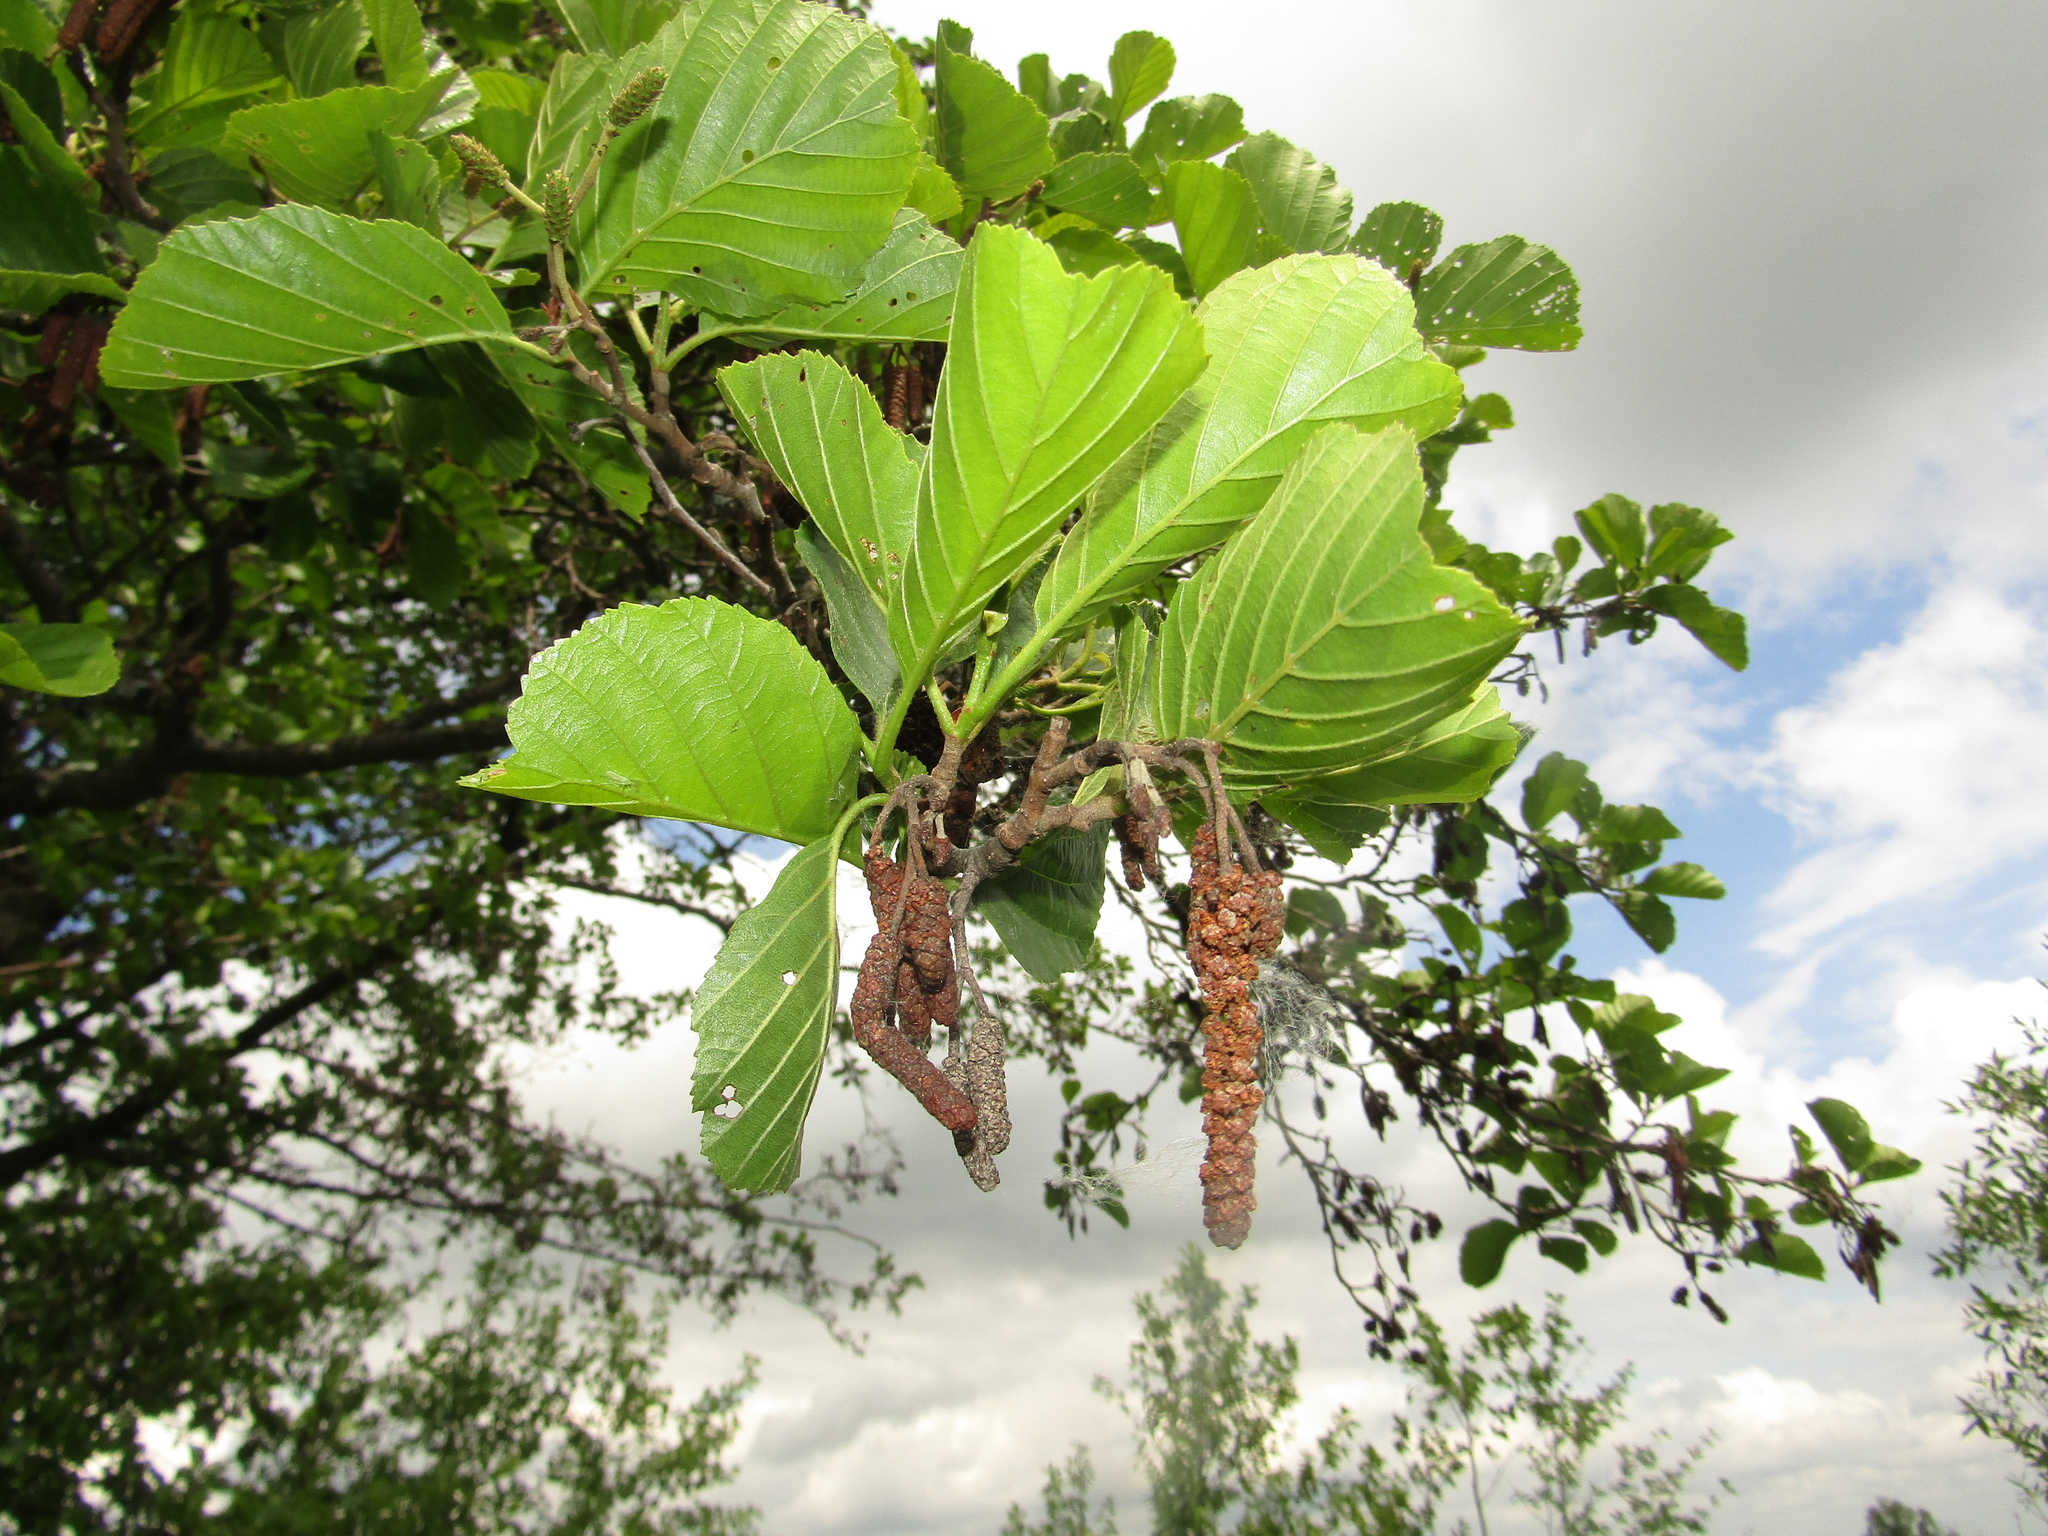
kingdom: Plantae
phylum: Tracheophyta
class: Magnoliopsida
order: Fagales
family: Betulaceae
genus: Alnus
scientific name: Alnus glutinosa
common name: Black alder
